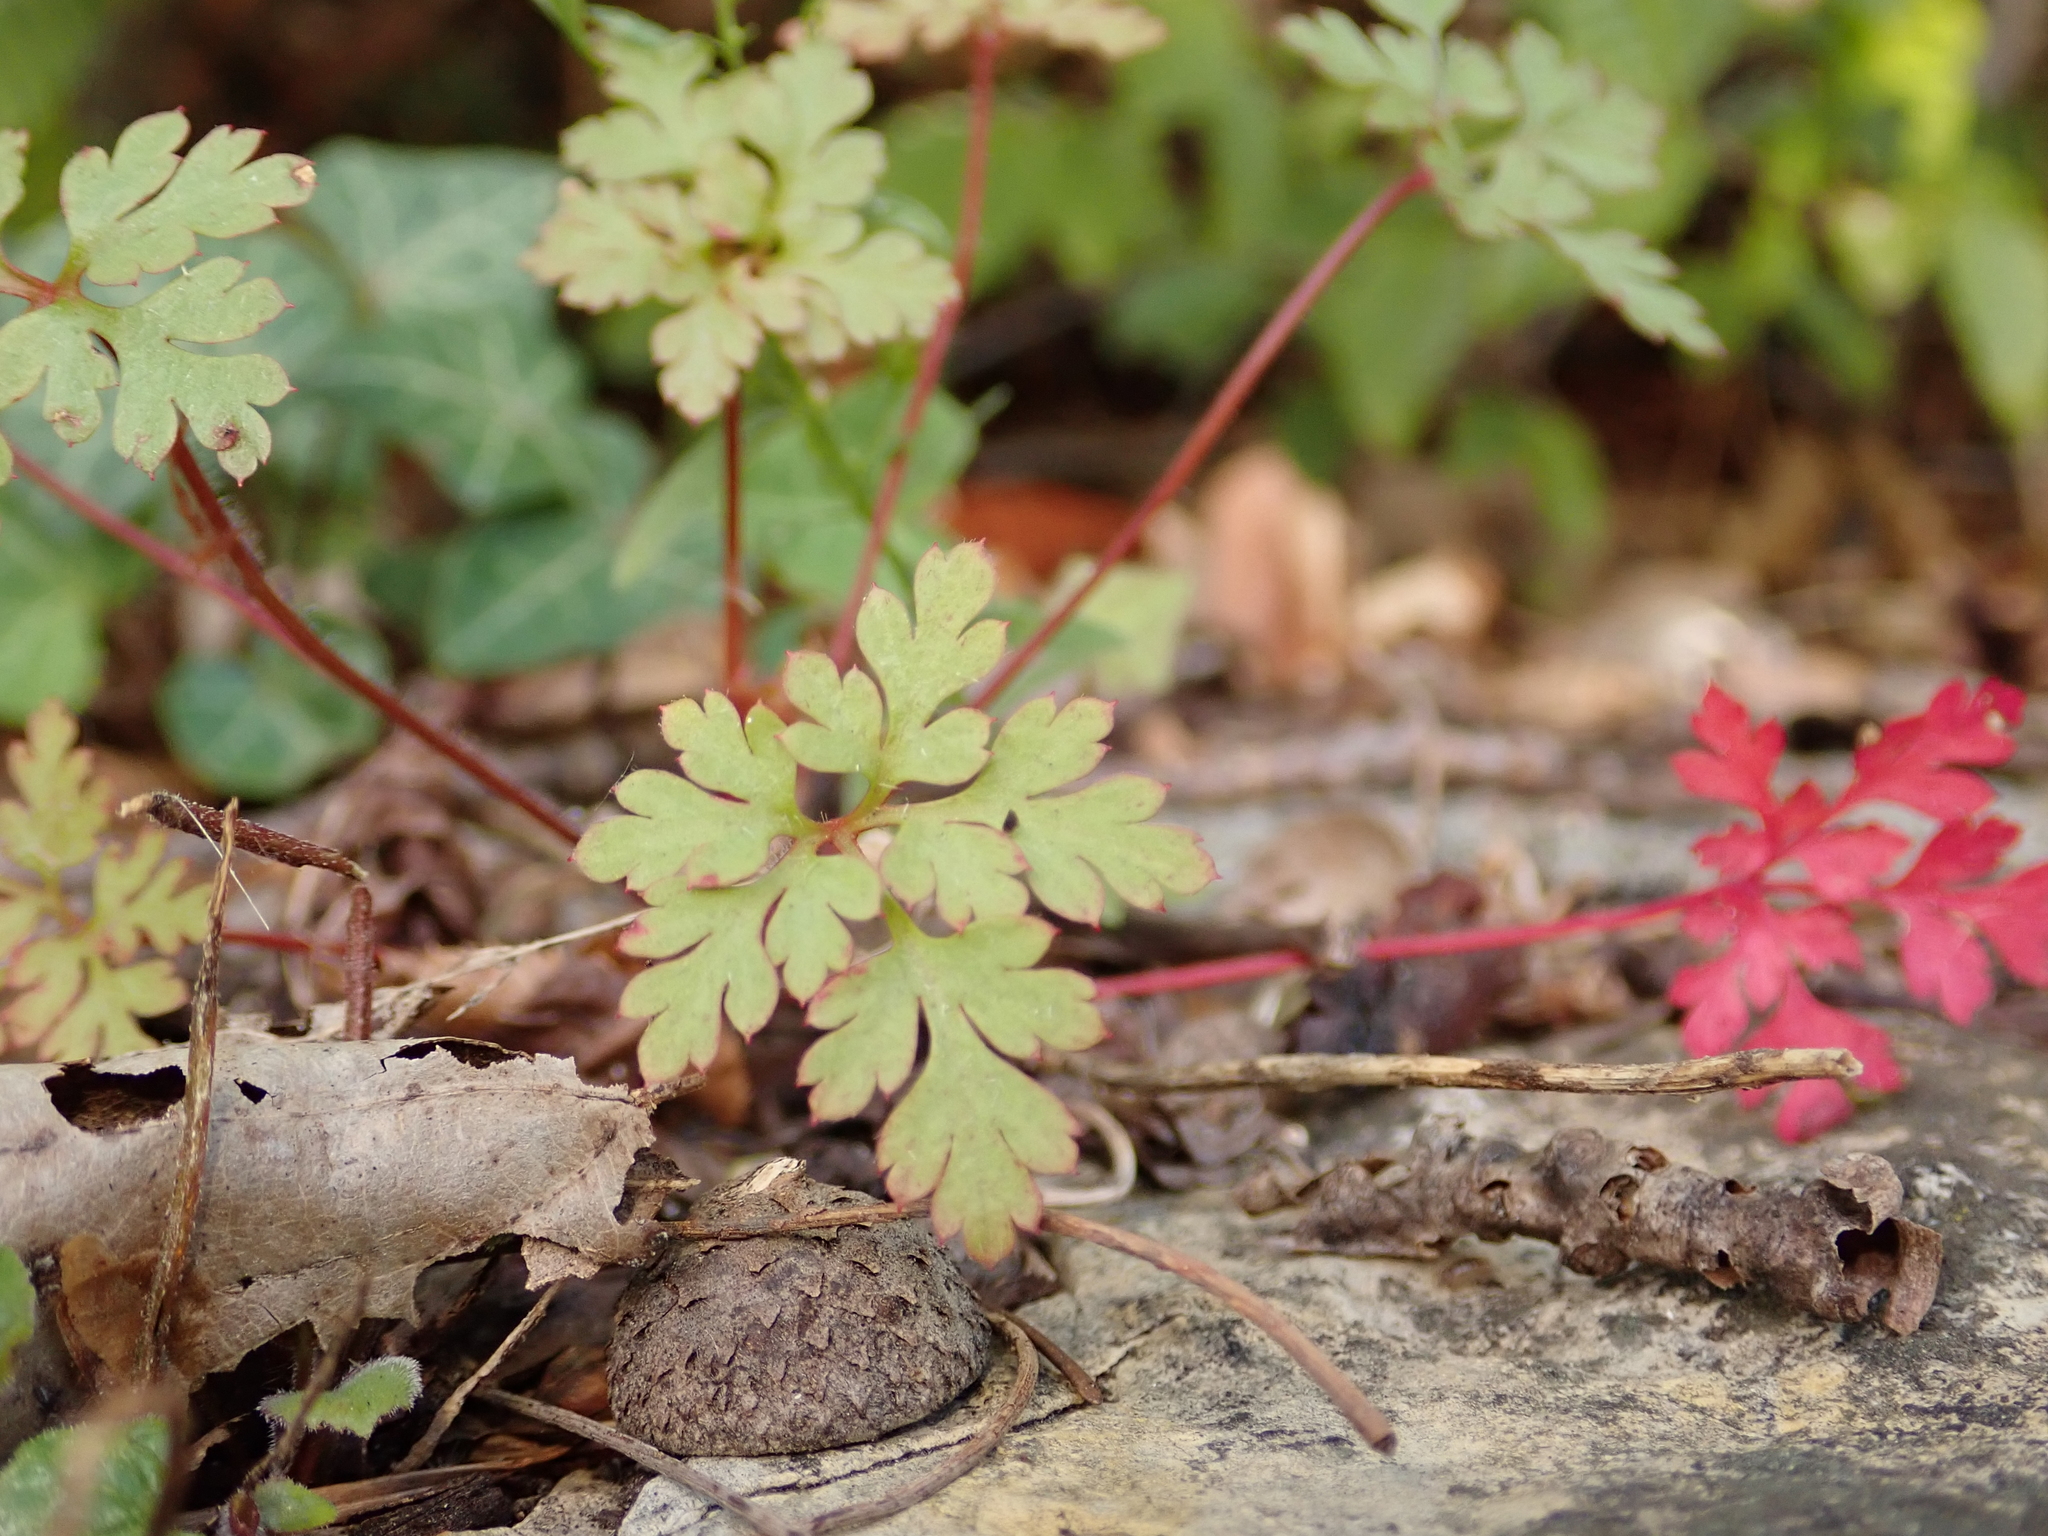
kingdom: Plantae
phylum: Tracheophyta
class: Magnoliopsida
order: Geraniales
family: Geraniaceae
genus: Geranium
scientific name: Geranium robertianum
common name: Herb-robert
